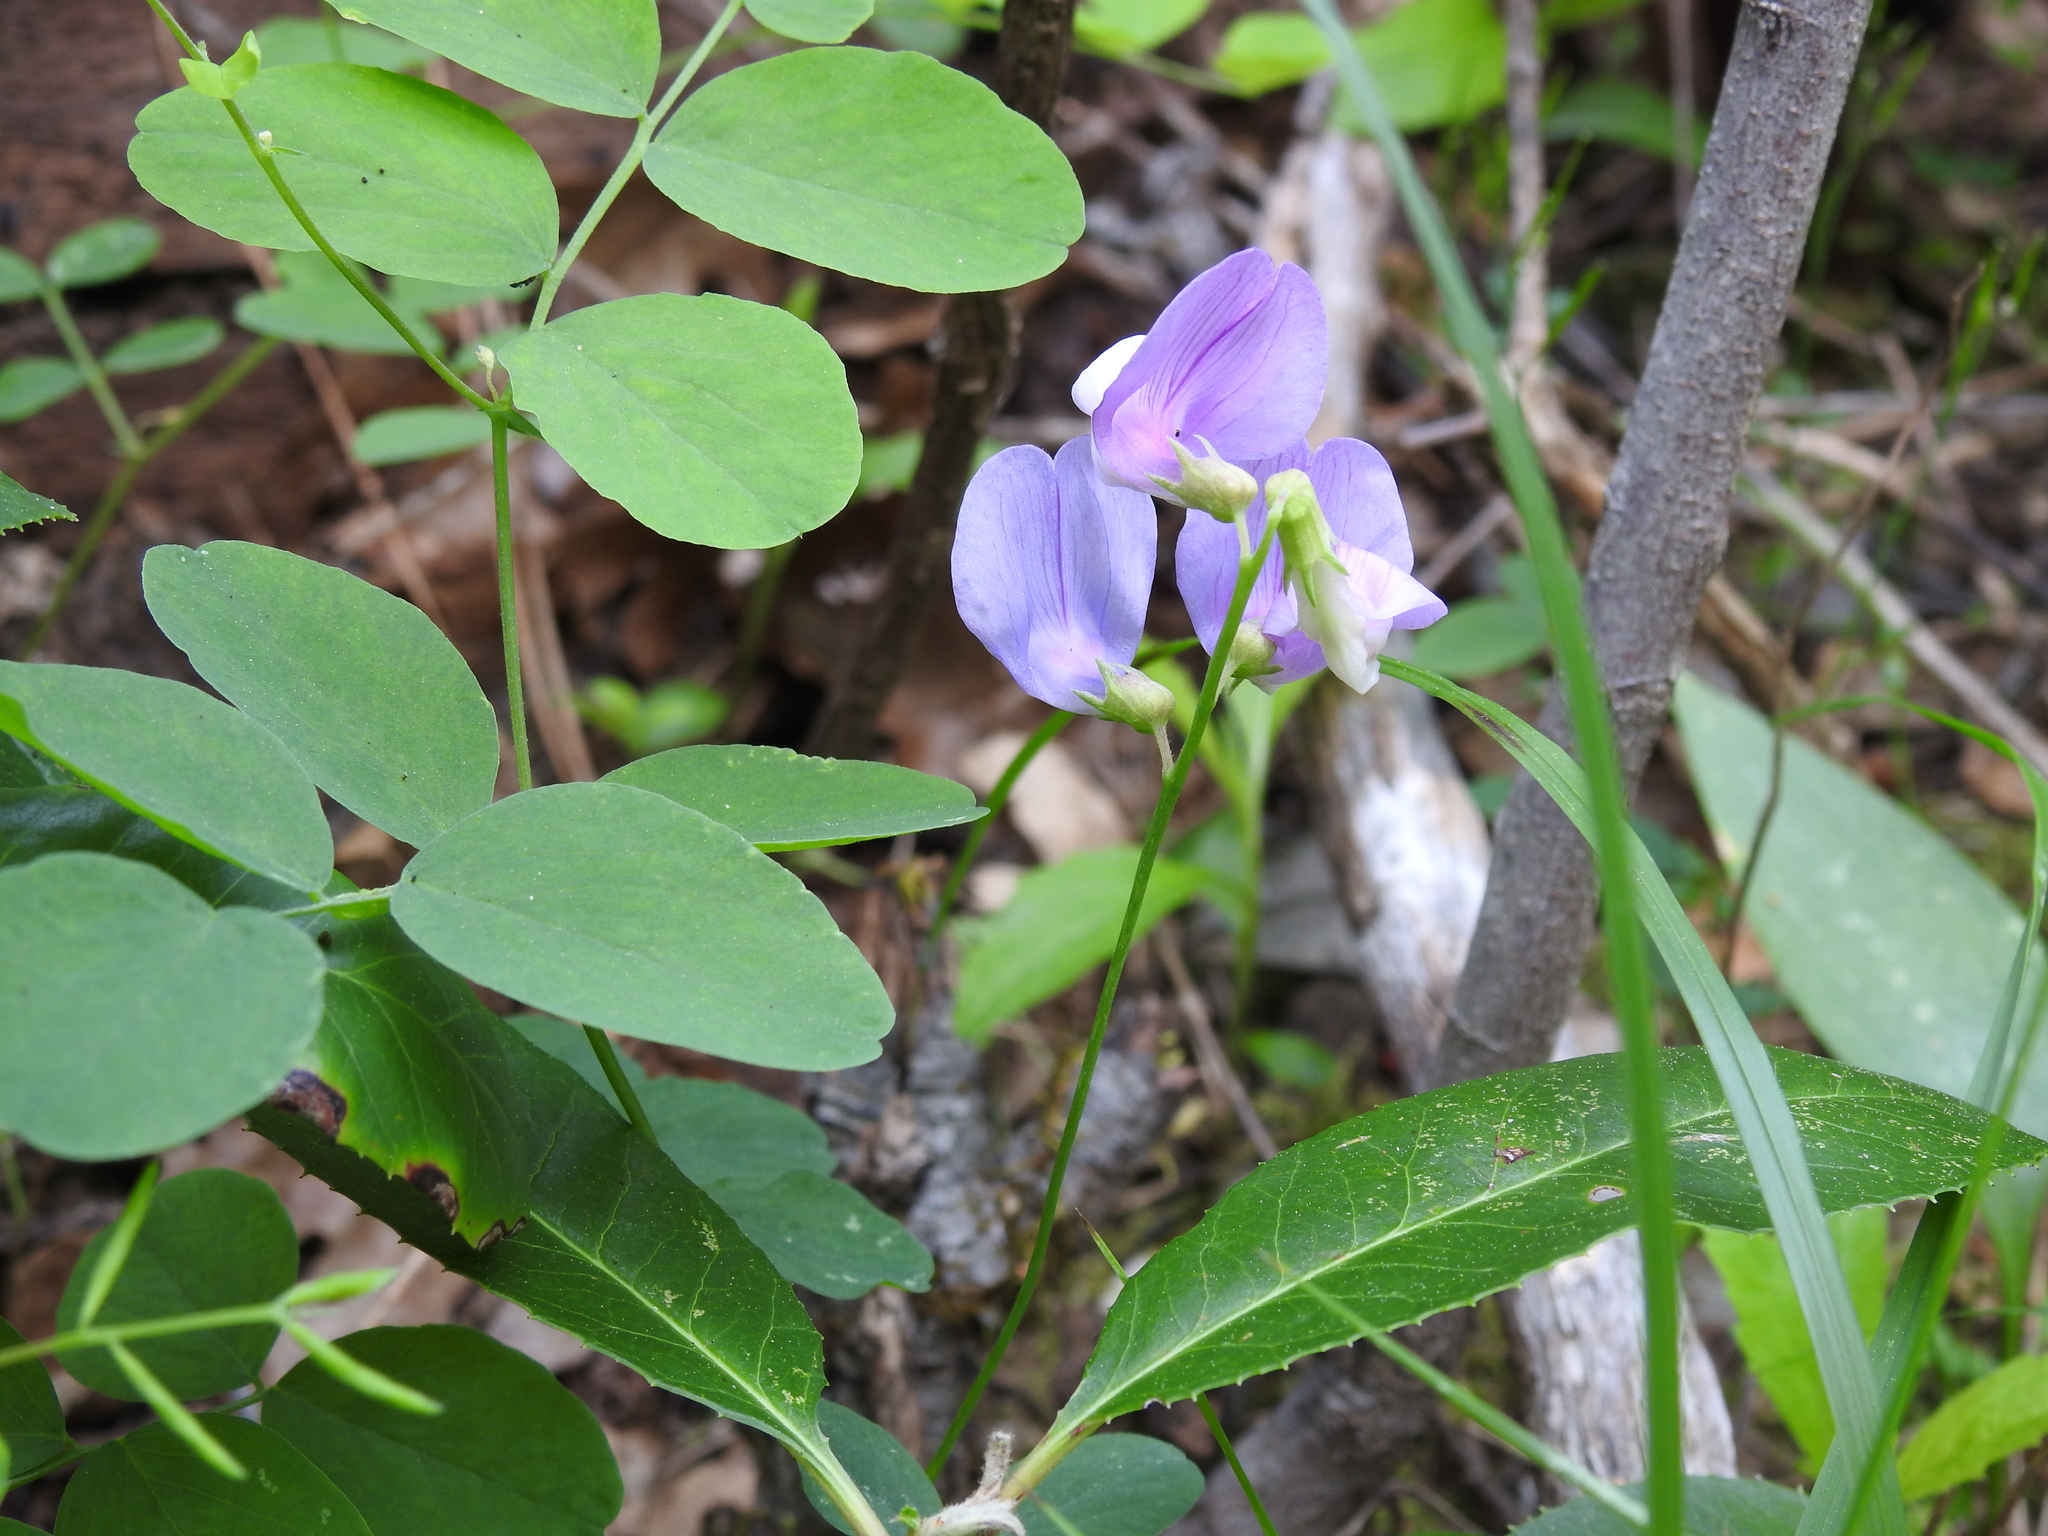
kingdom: Plantae
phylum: Tracheophyta
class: Magnoliopsida
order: Fabales
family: Fabaceae
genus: Lathyrus
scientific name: Lathyrus nevadensis
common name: Sierra nevada peavine
